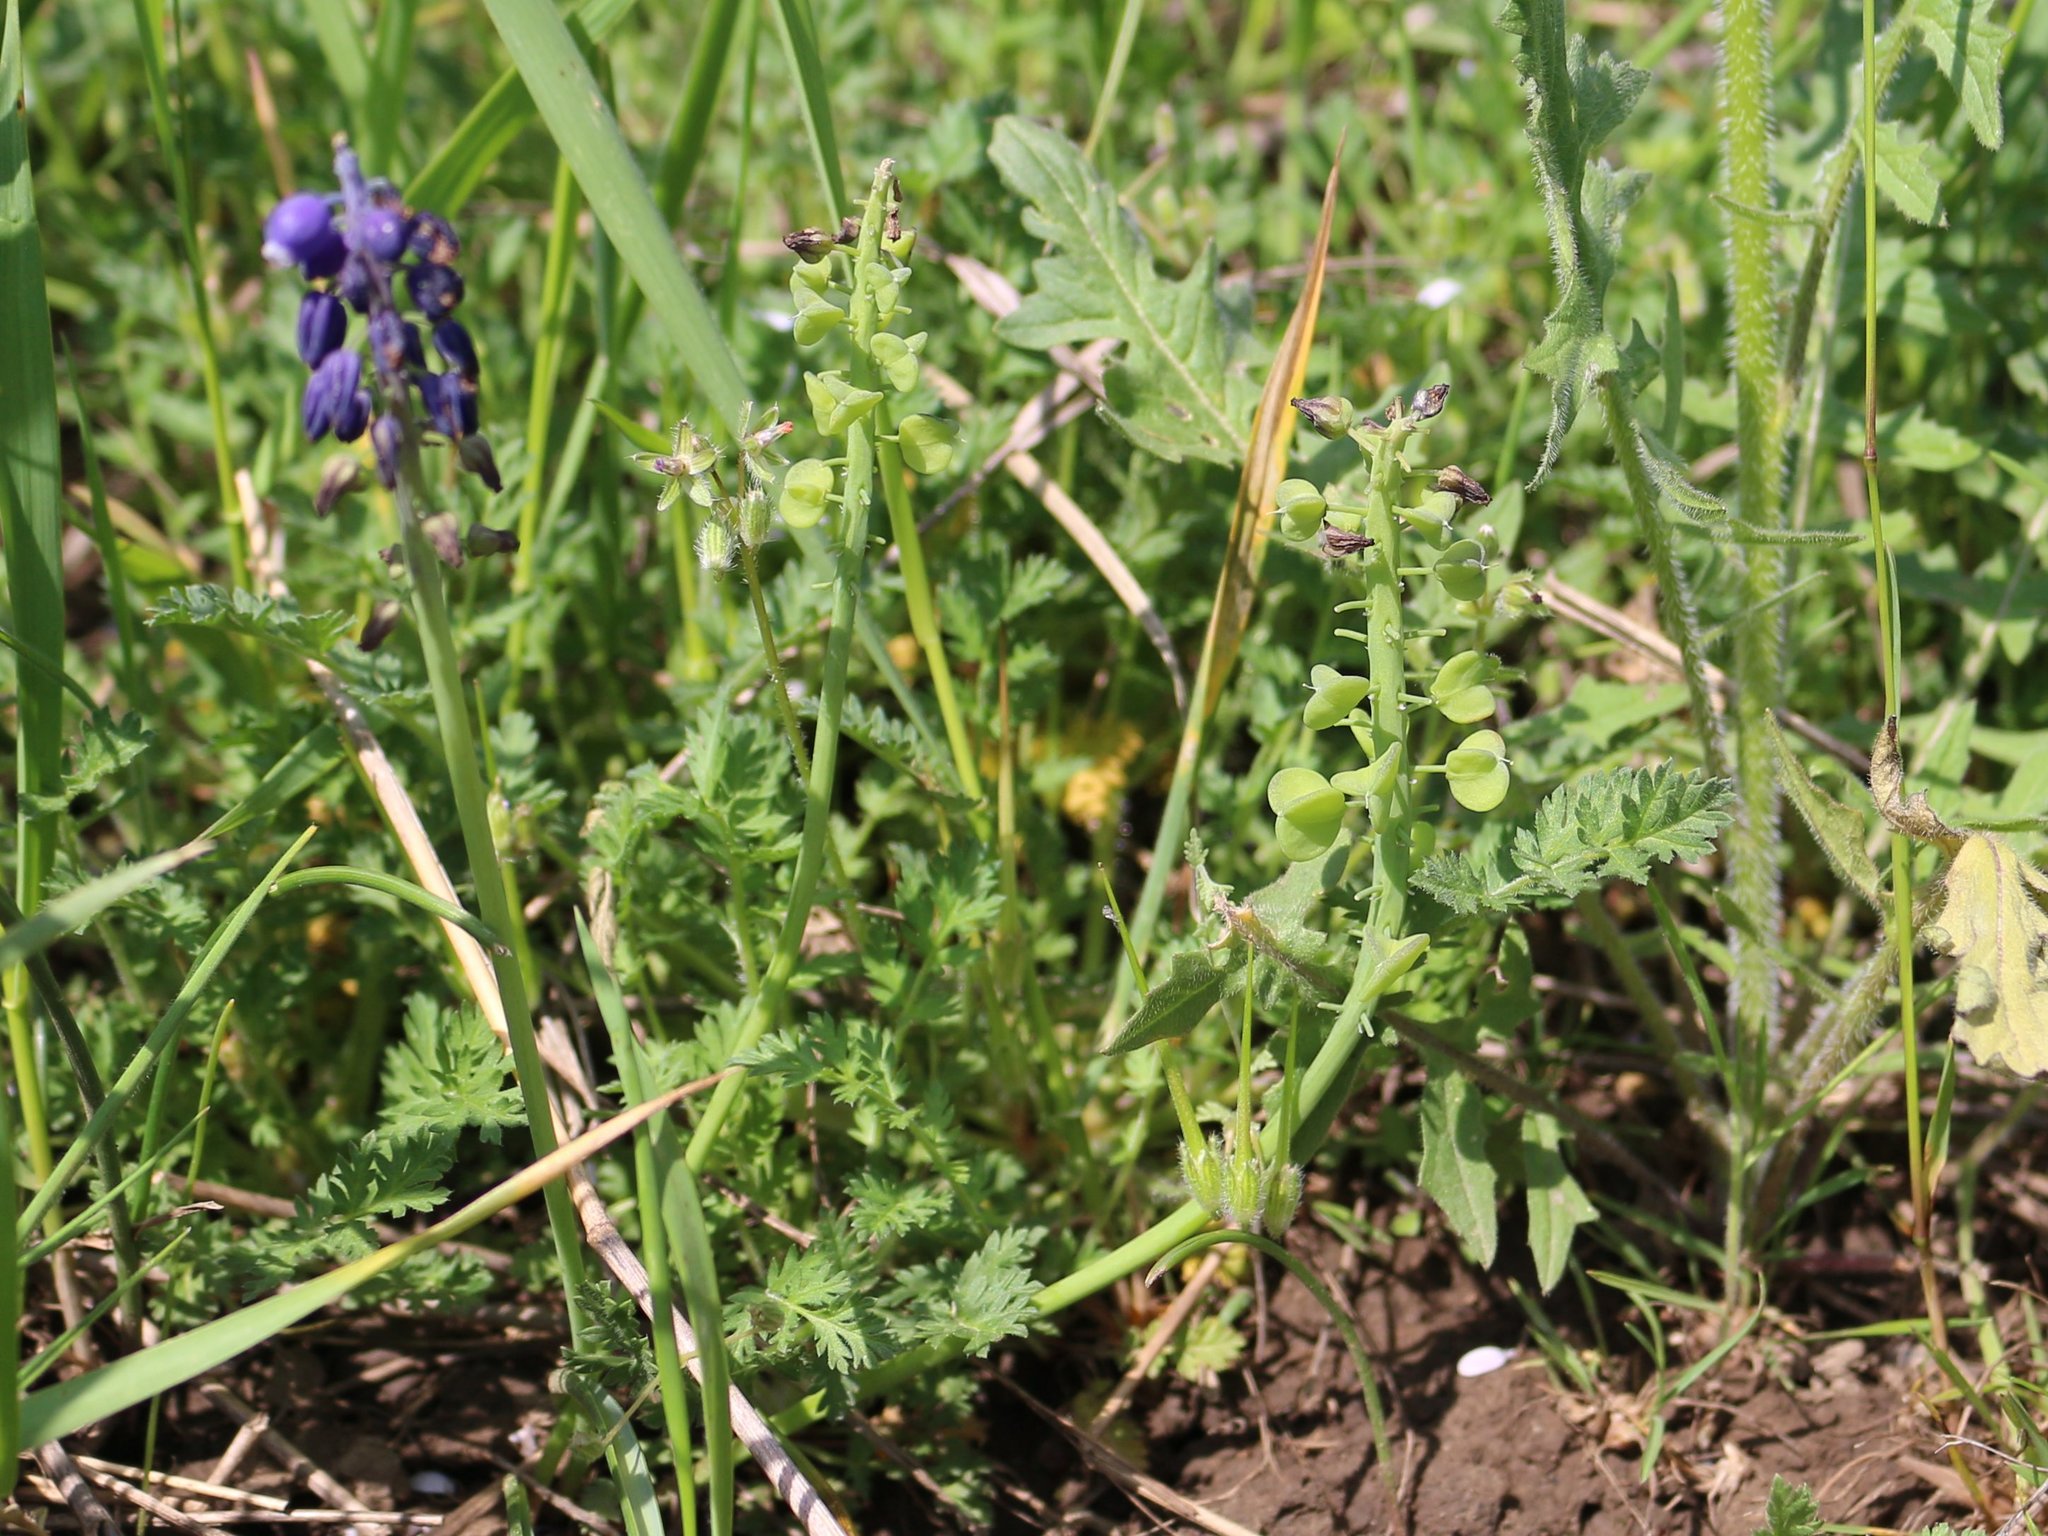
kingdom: Plantae
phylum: Tracheophyta
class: Liliopsida
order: Asparagales
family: Asparagaceae
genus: Muscari
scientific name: Muscari neglectum
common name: Grape-hyacinth
